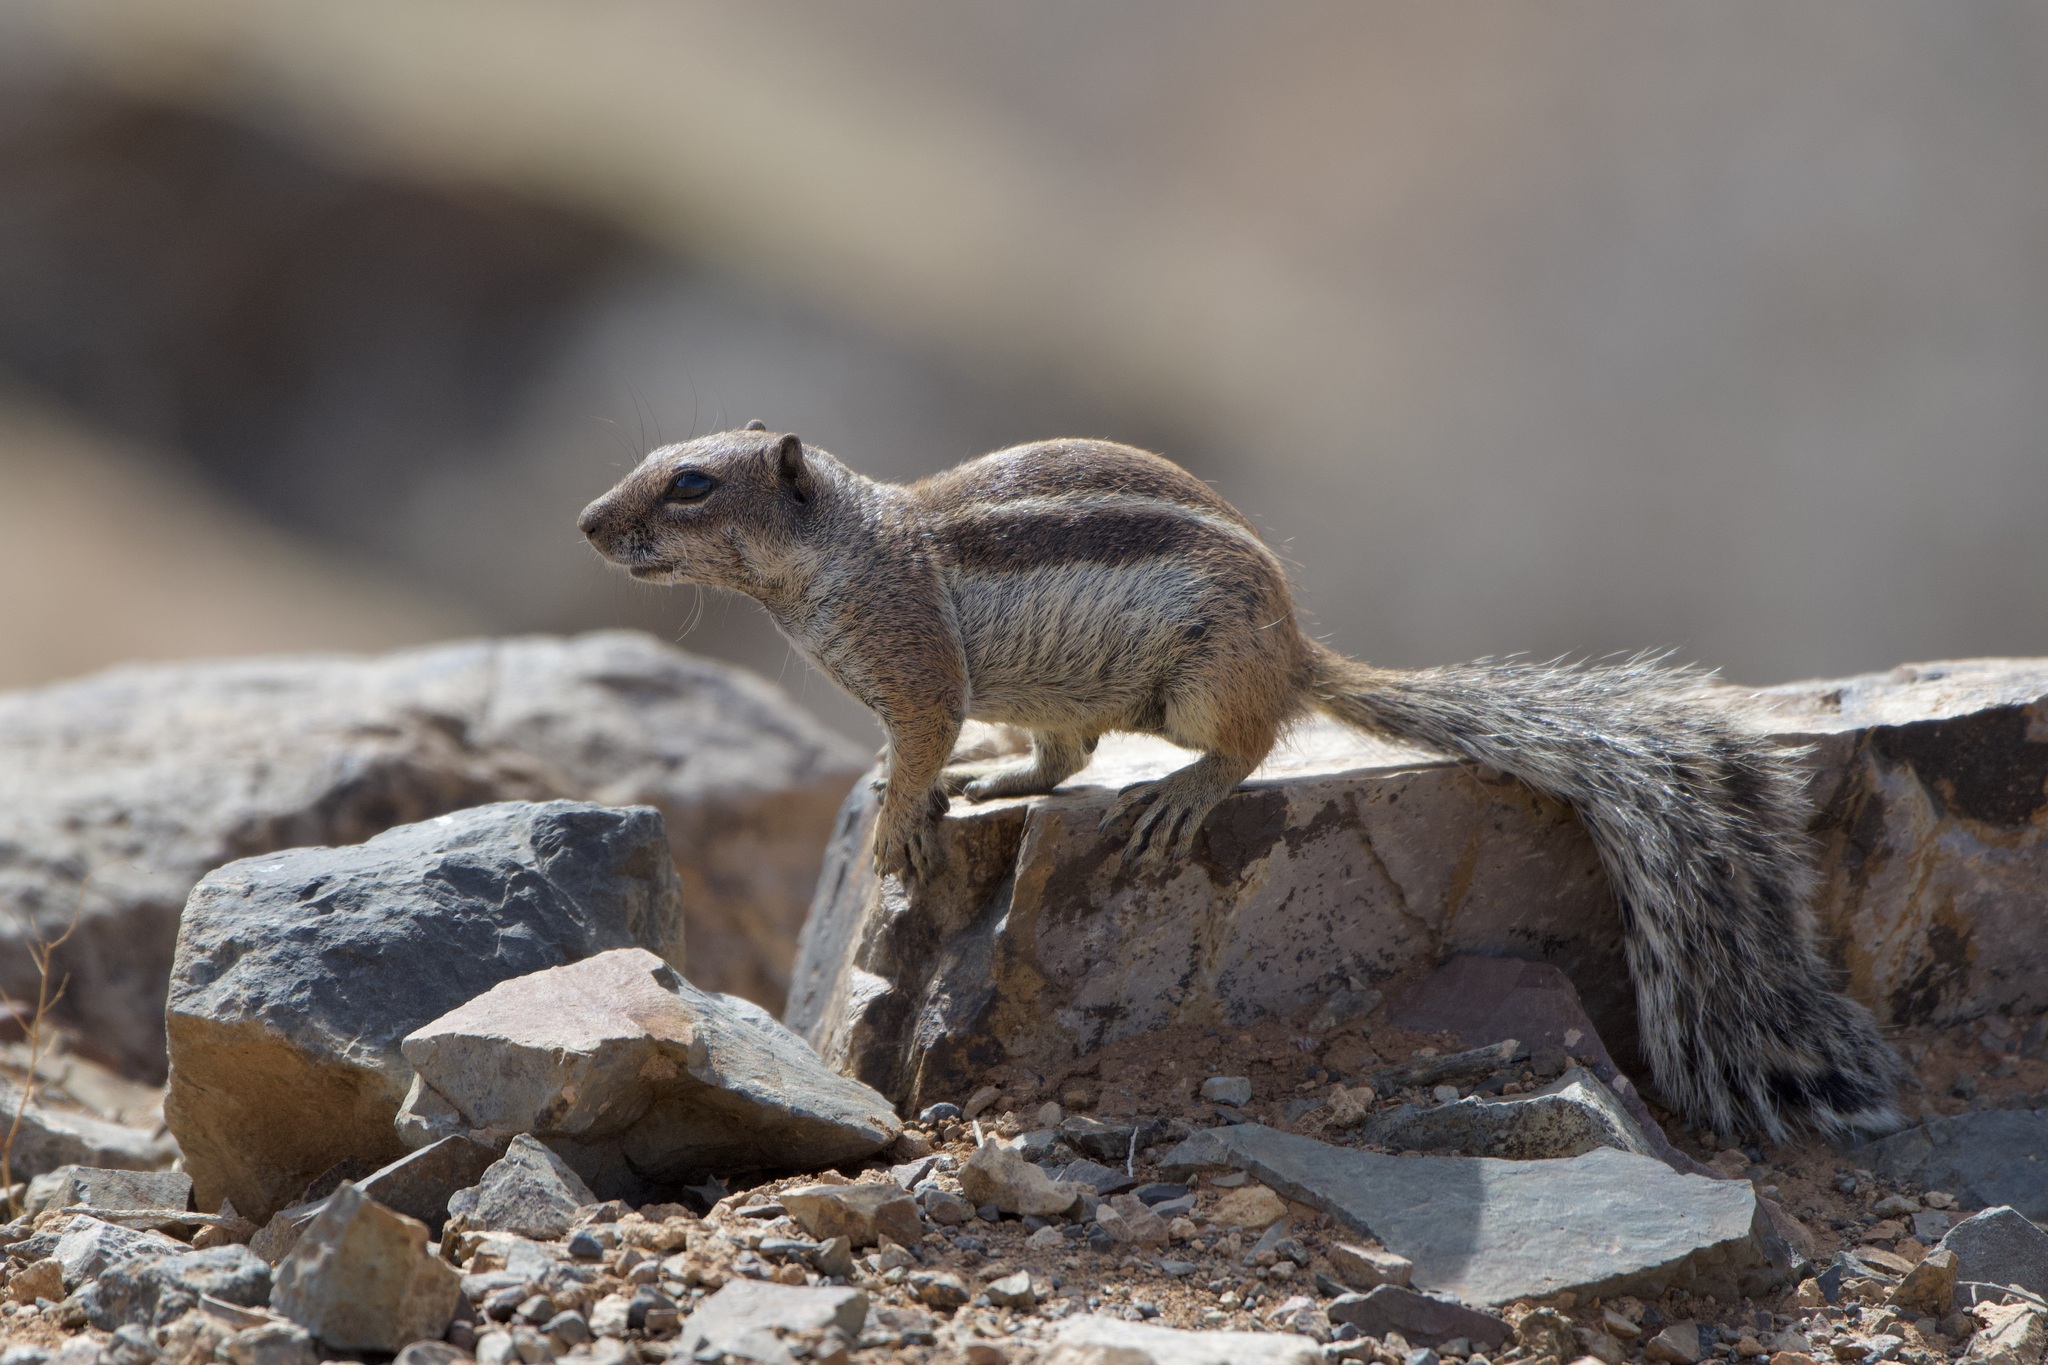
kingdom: Animalia
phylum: Chordata
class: Mammalia
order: Rodentia
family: Sciuridae
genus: Atlantoxerus
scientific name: Atlantoxerus getulus
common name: Barbary ground squirrel
